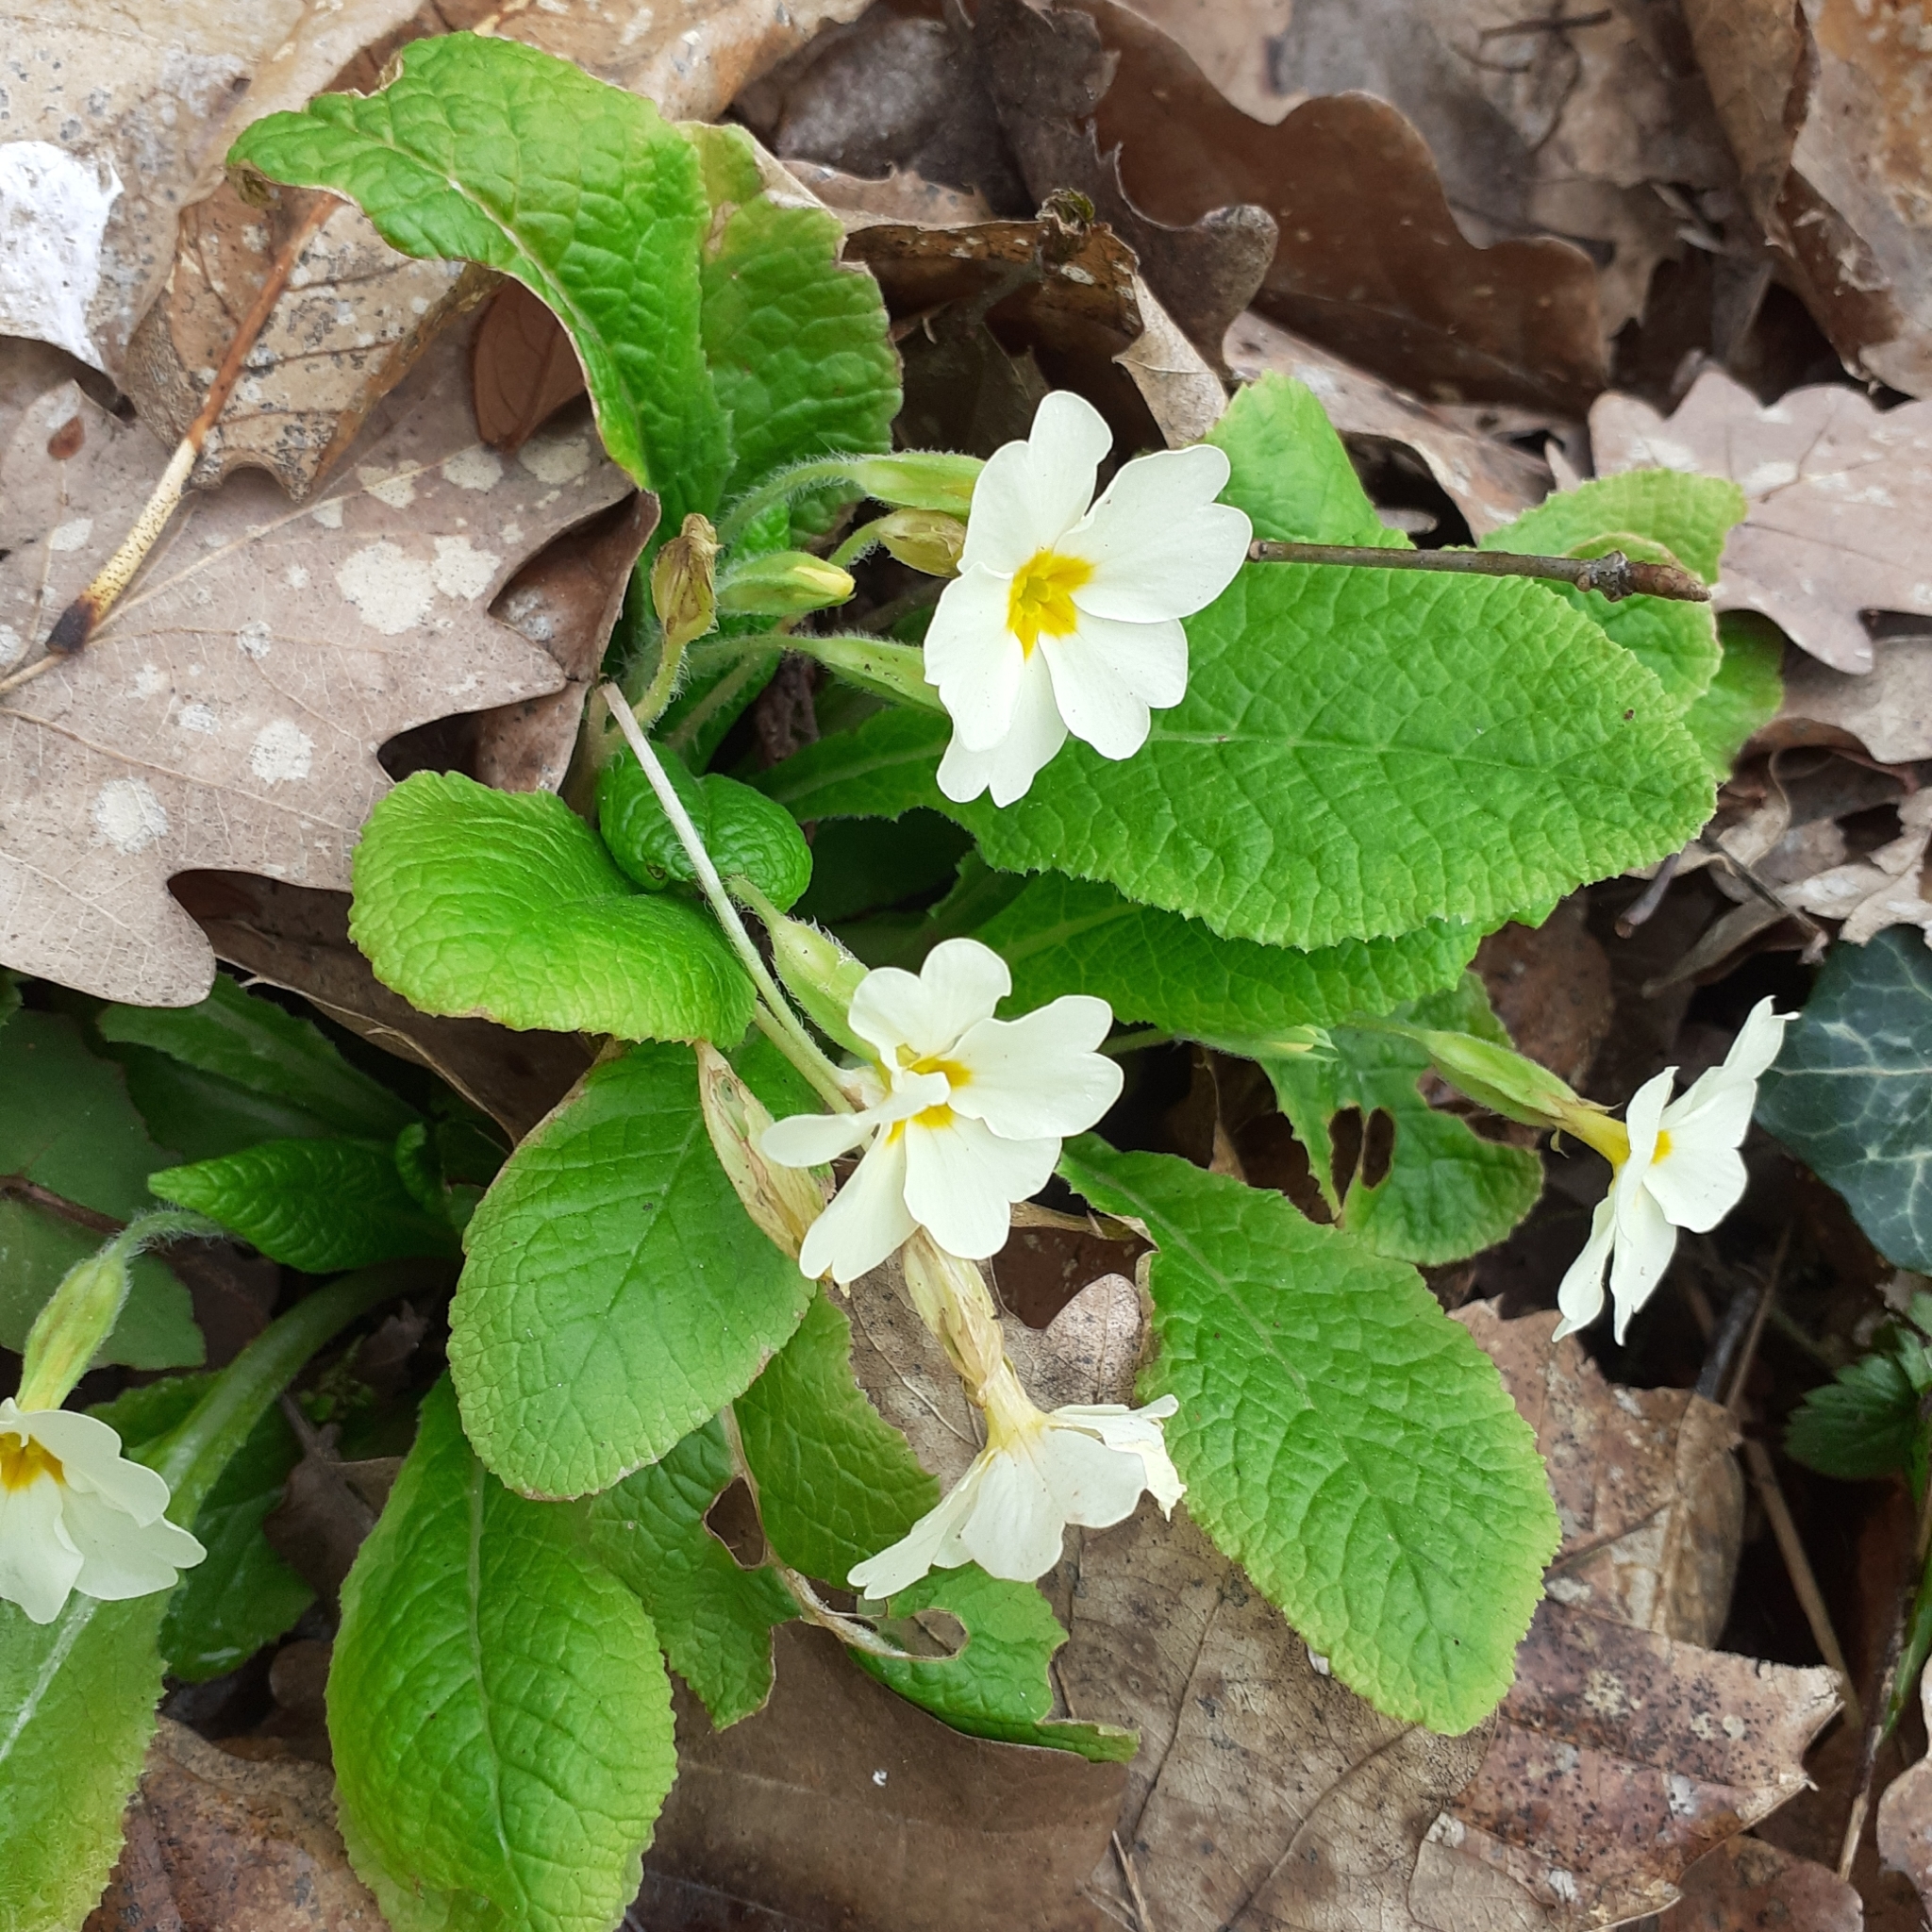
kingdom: Plantae
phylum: Tracheophyta
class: Magnoliopsida
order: Ericales
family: Primulaceae
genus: Primula
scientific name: Primula vulgaris
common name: Primrose
